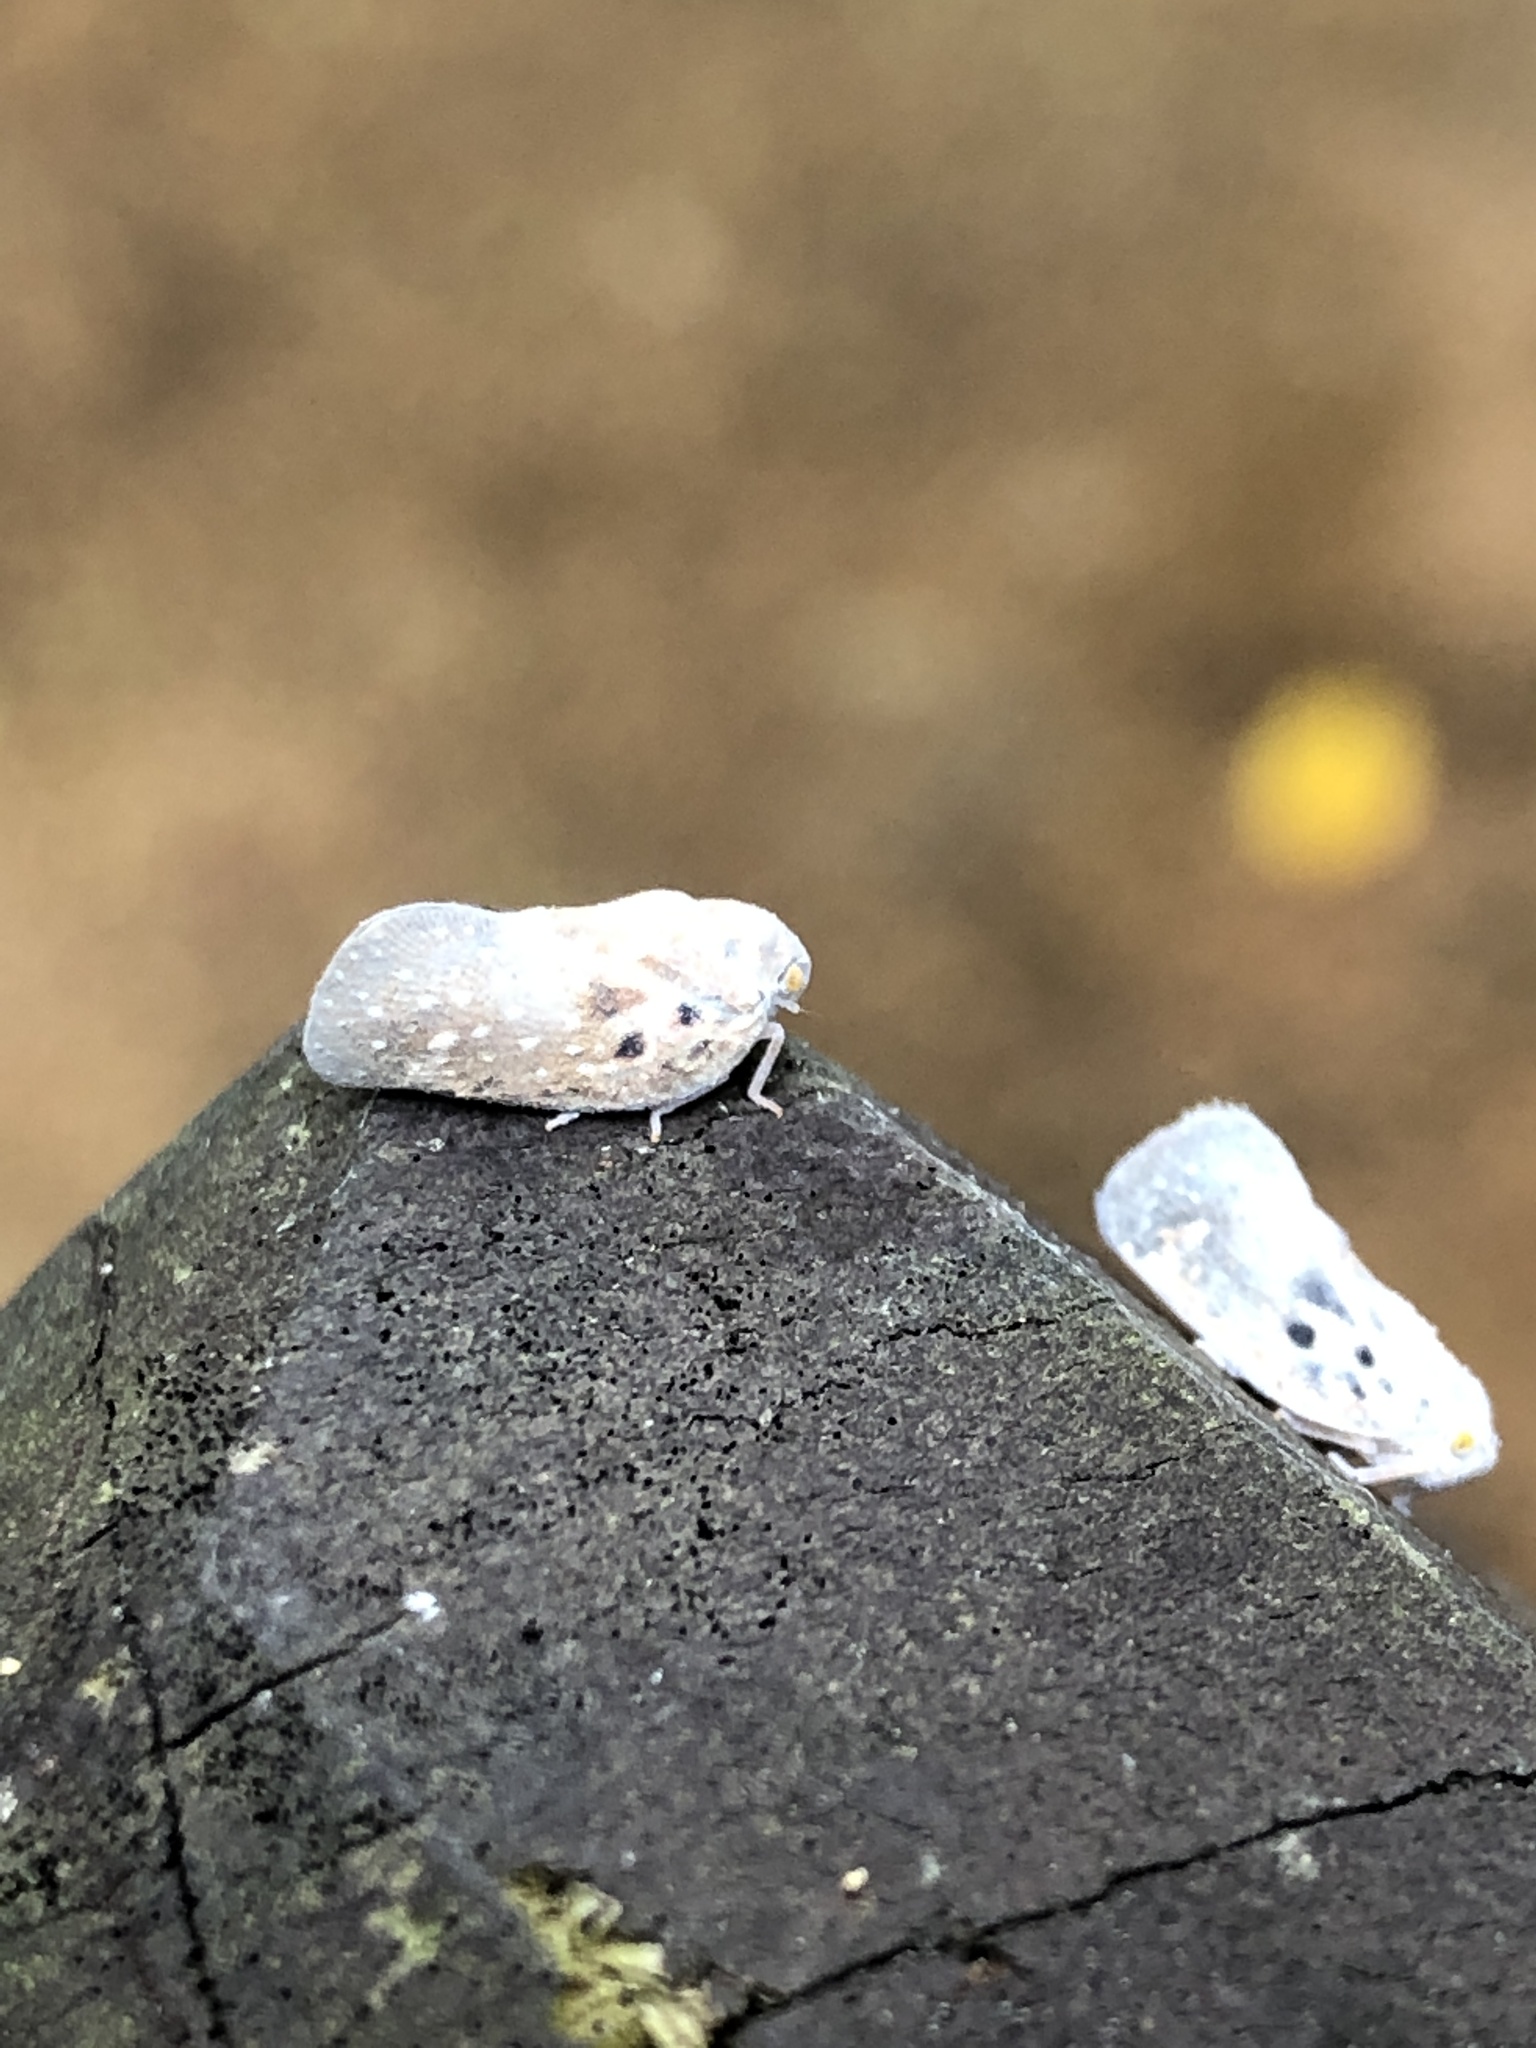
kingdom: Animalia
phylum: Arthropoda
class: Insecta
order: Hemiptera
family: Flatidae
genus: Metcalfa
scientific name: Metcalfa pruinosa
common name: Citrus flatid planthopper
